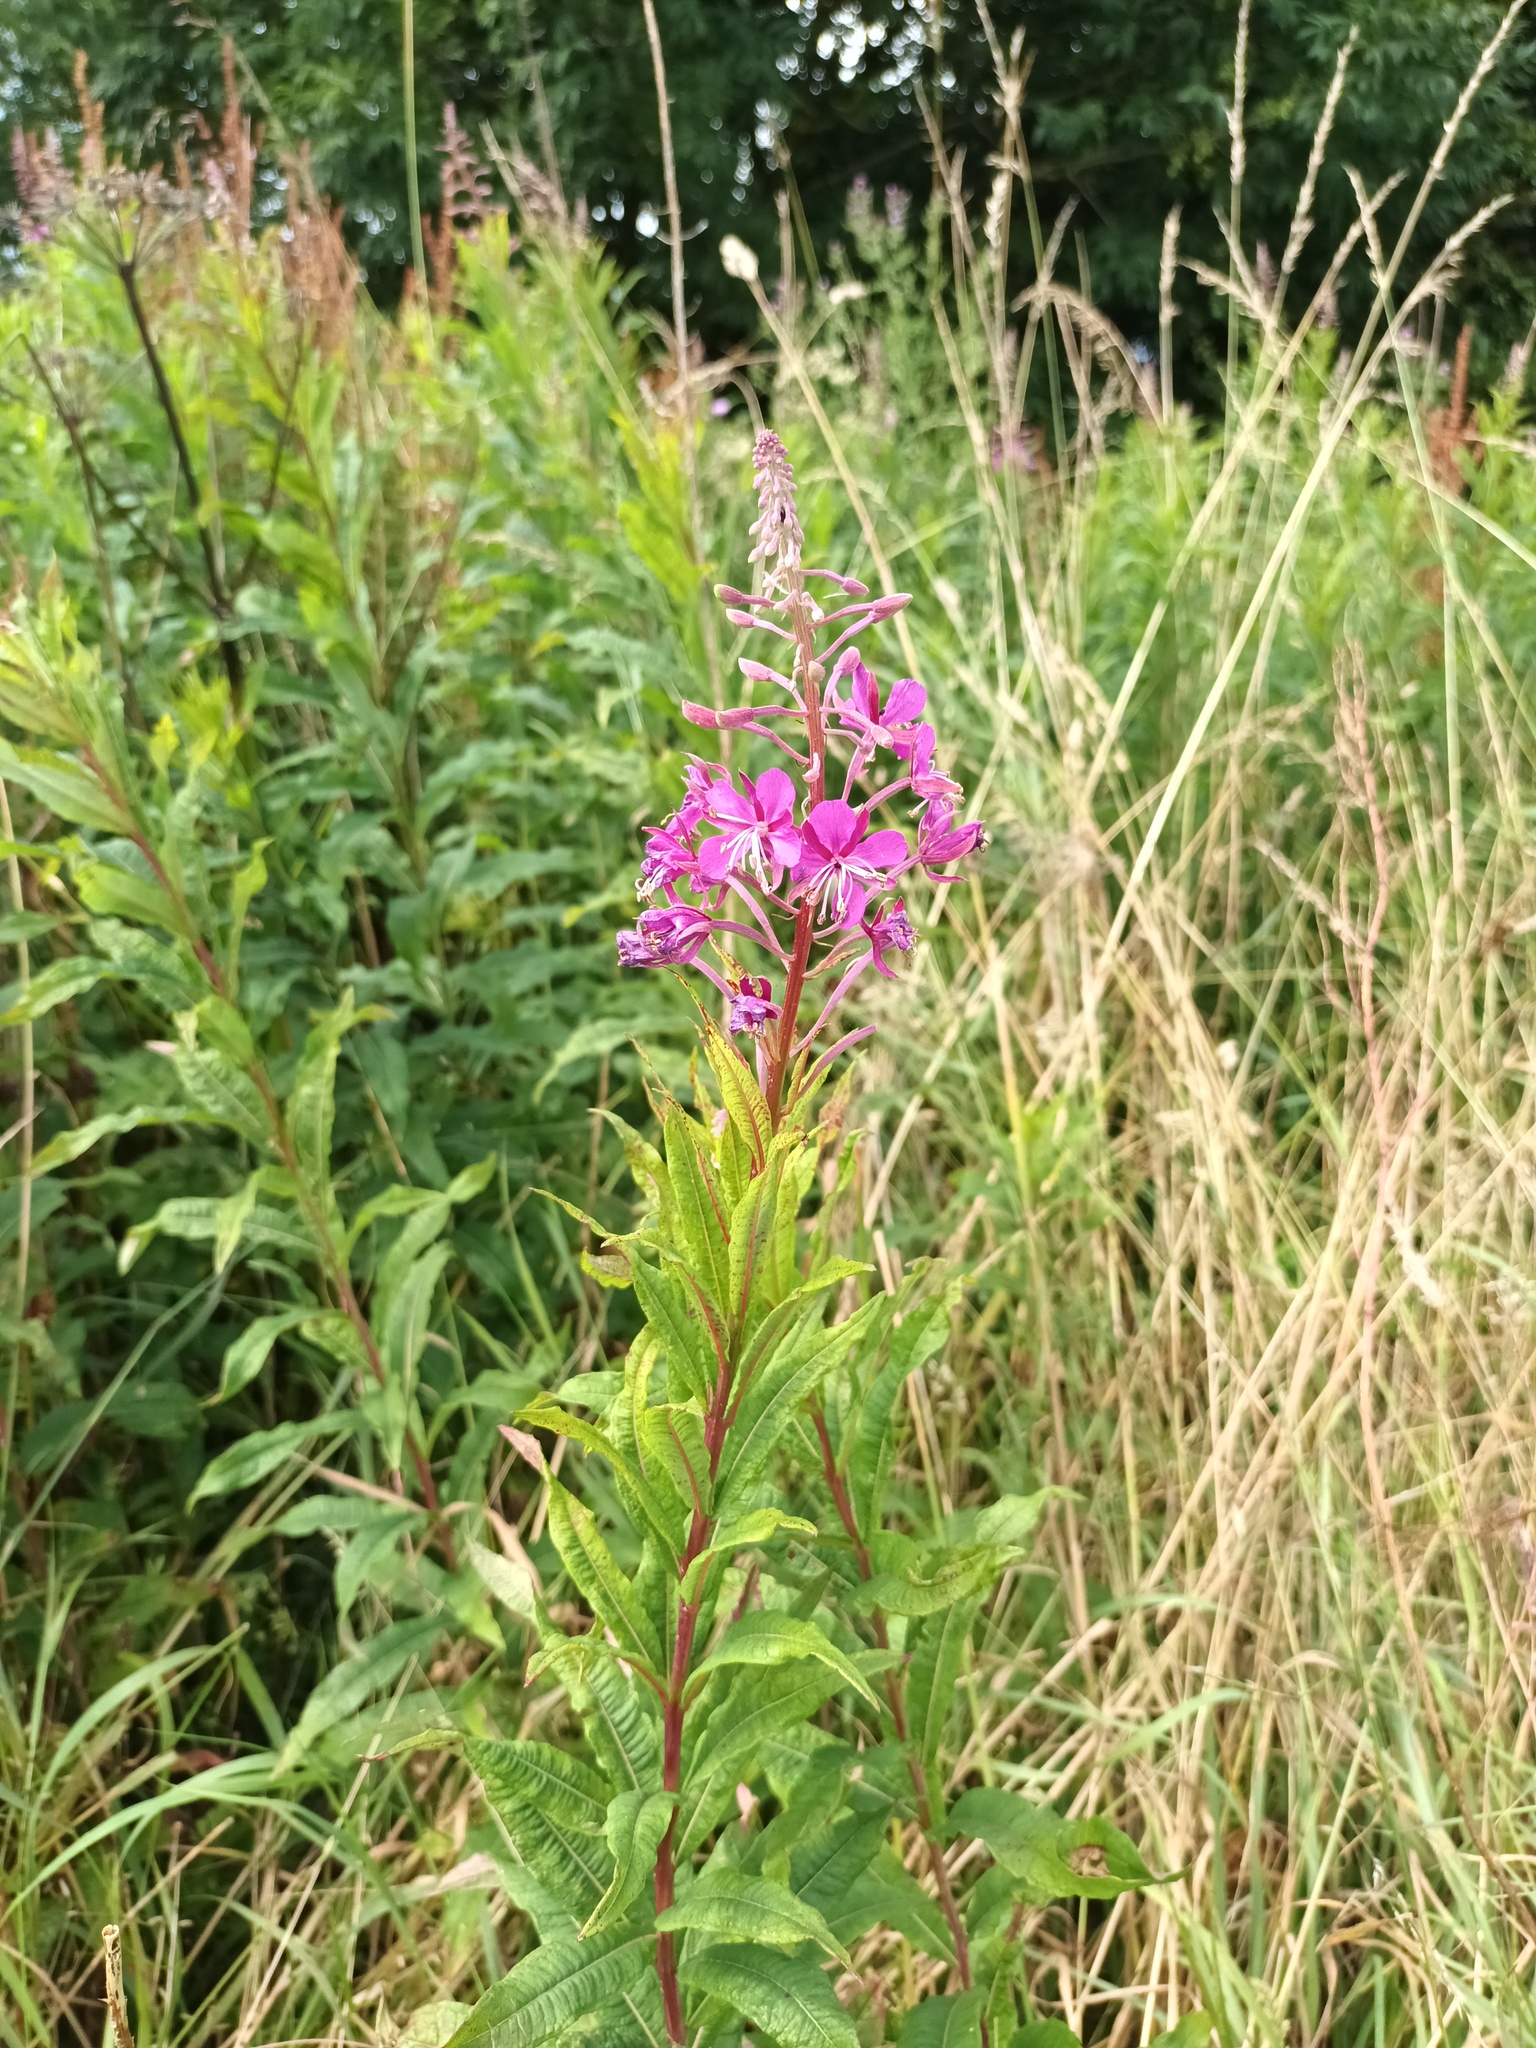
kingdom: Plantae
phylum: Tracheophyta
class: Magnoliopsida
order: Myrtales
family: Onagraceae
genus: Chamaenerion
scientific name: Chamaenerion angustifolium
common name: Fireweed
